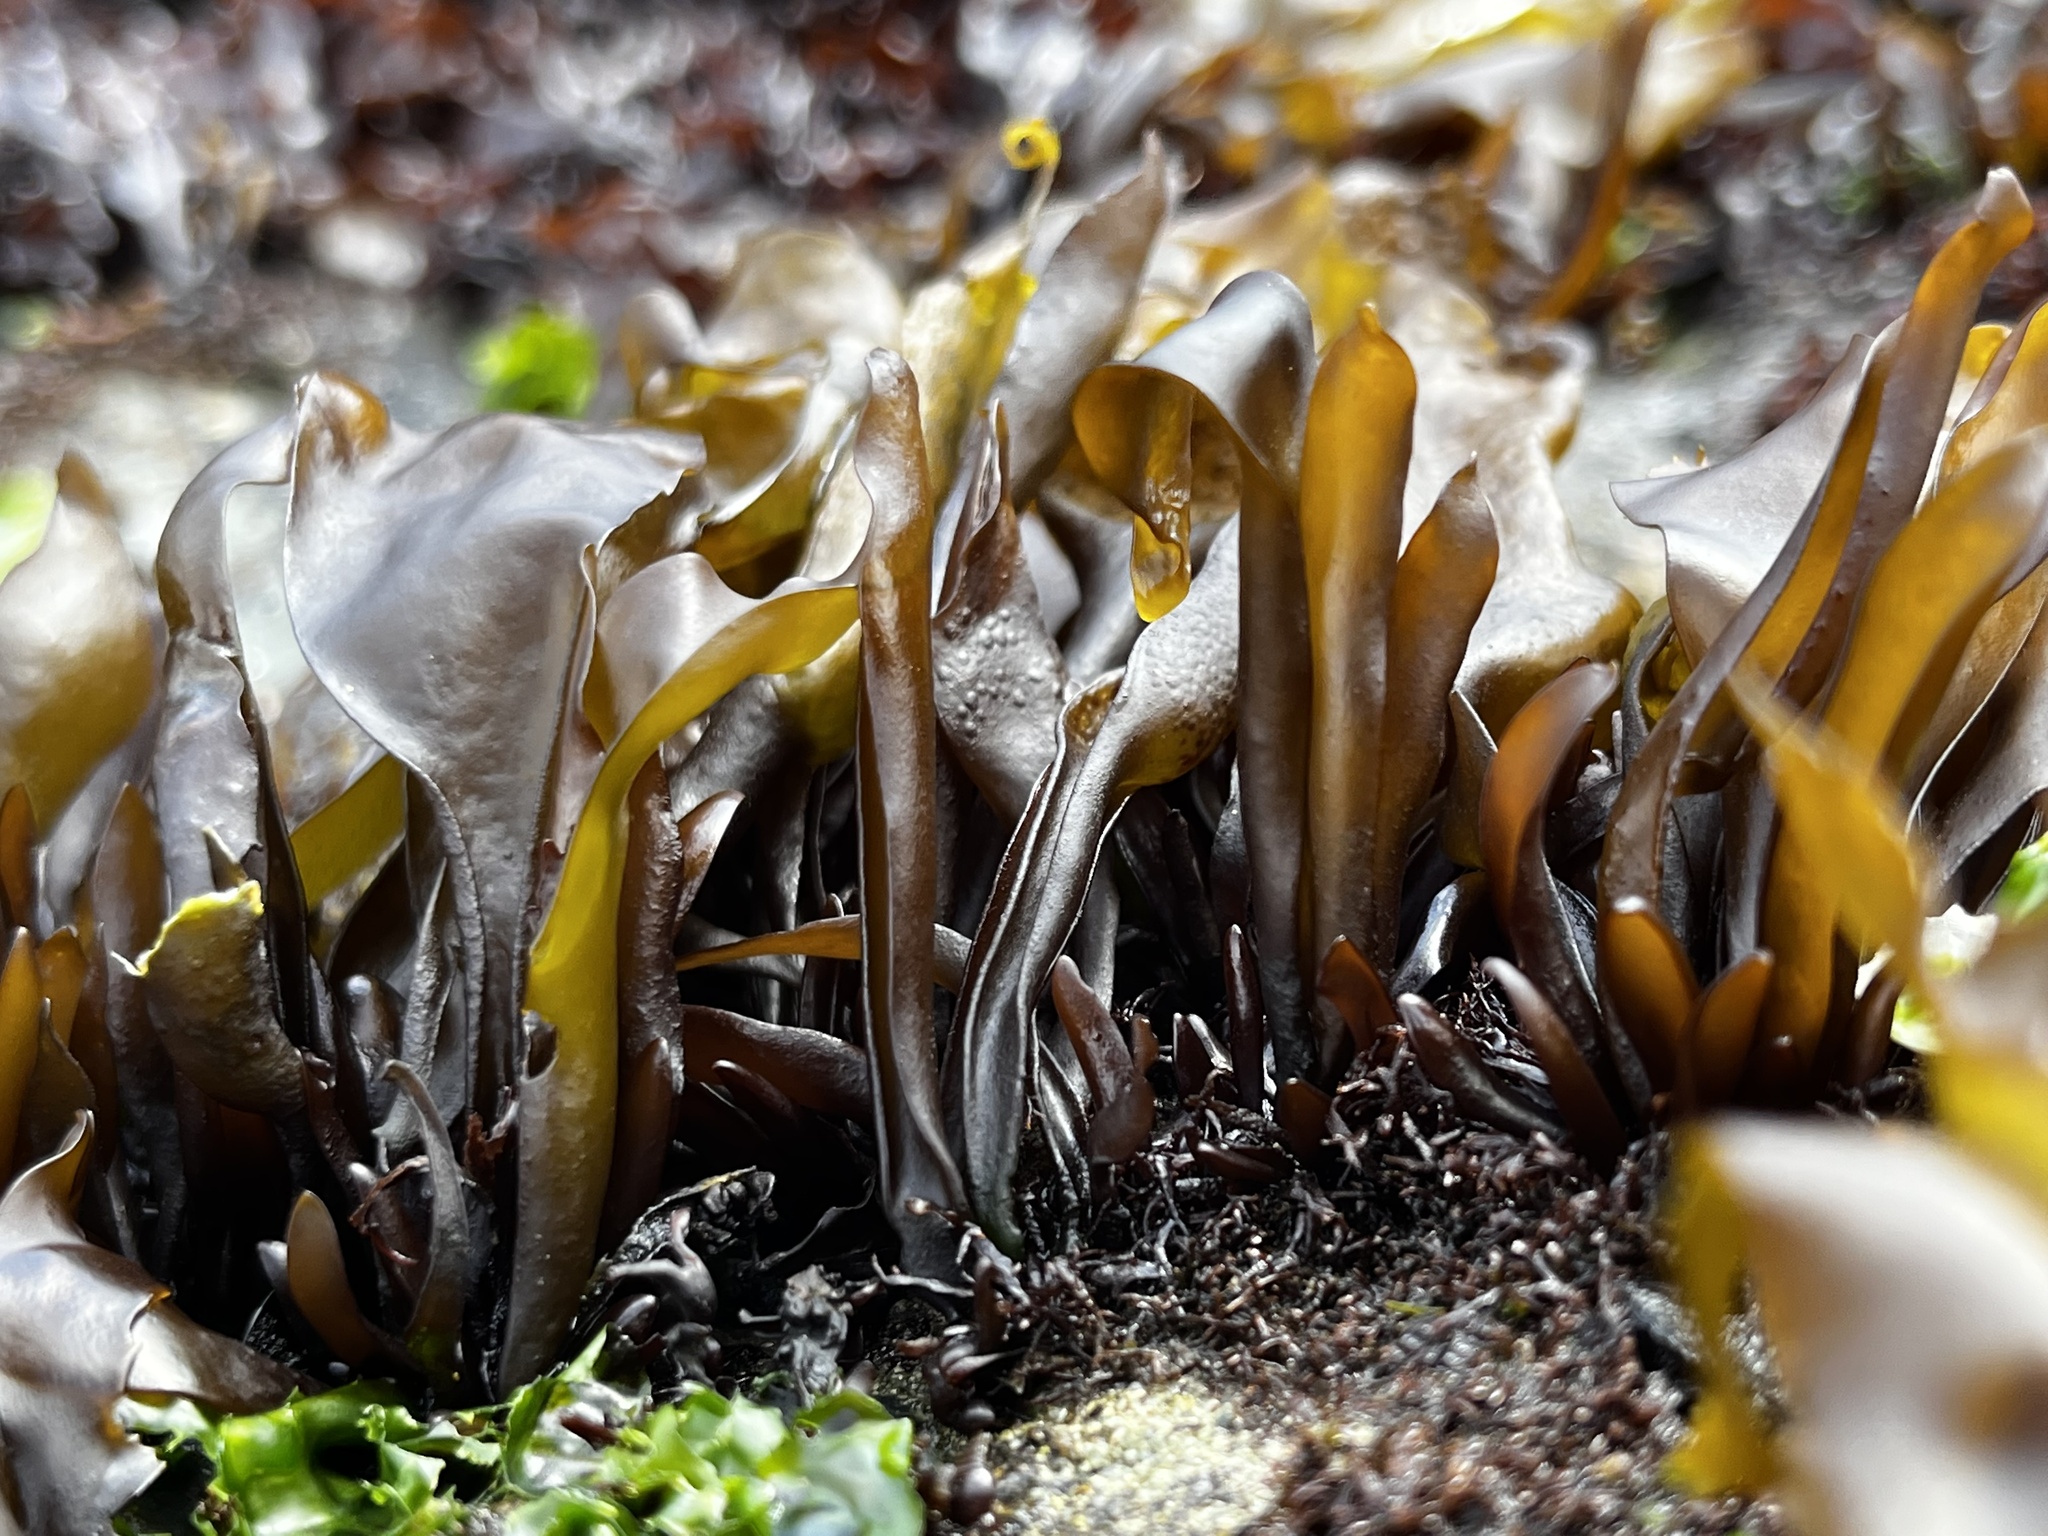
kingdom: Plantae
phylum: Rhodophyta
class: Florideophyceae
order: Gigartinales
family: Gigartinaceae
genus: Mazzaella
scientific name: Mazzaella laminarioides
